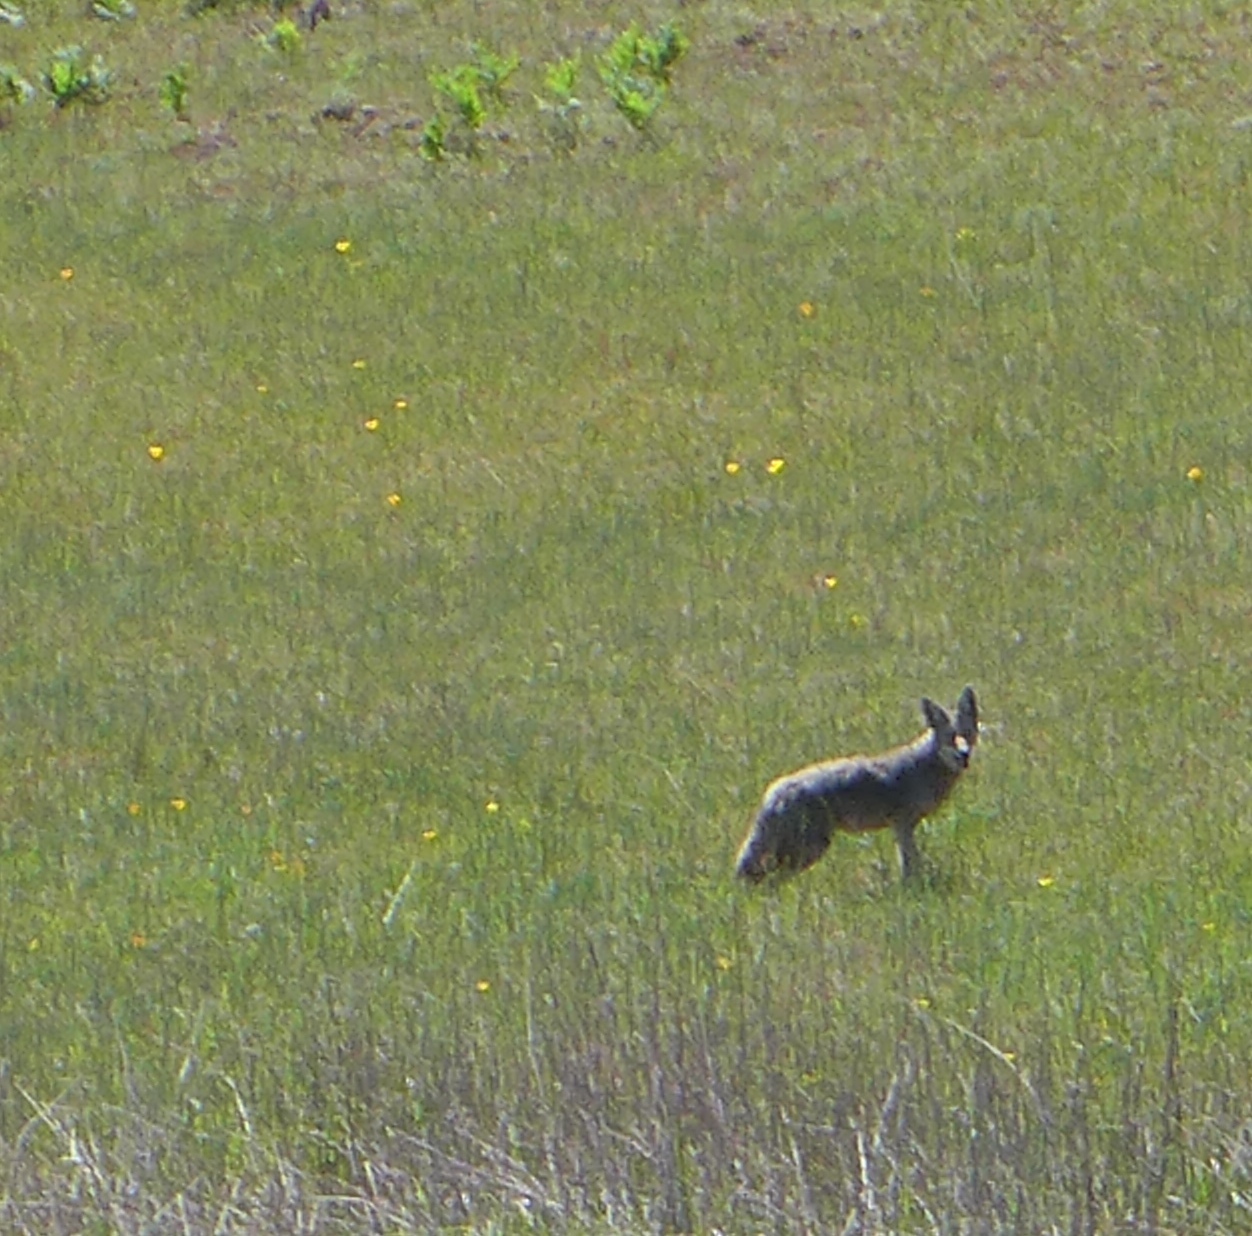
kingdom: Animalia
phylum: Chordata
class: Mammalia
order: Carnivora
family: Canidae
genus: Canis
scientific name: Canis latrans
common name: Coyote
